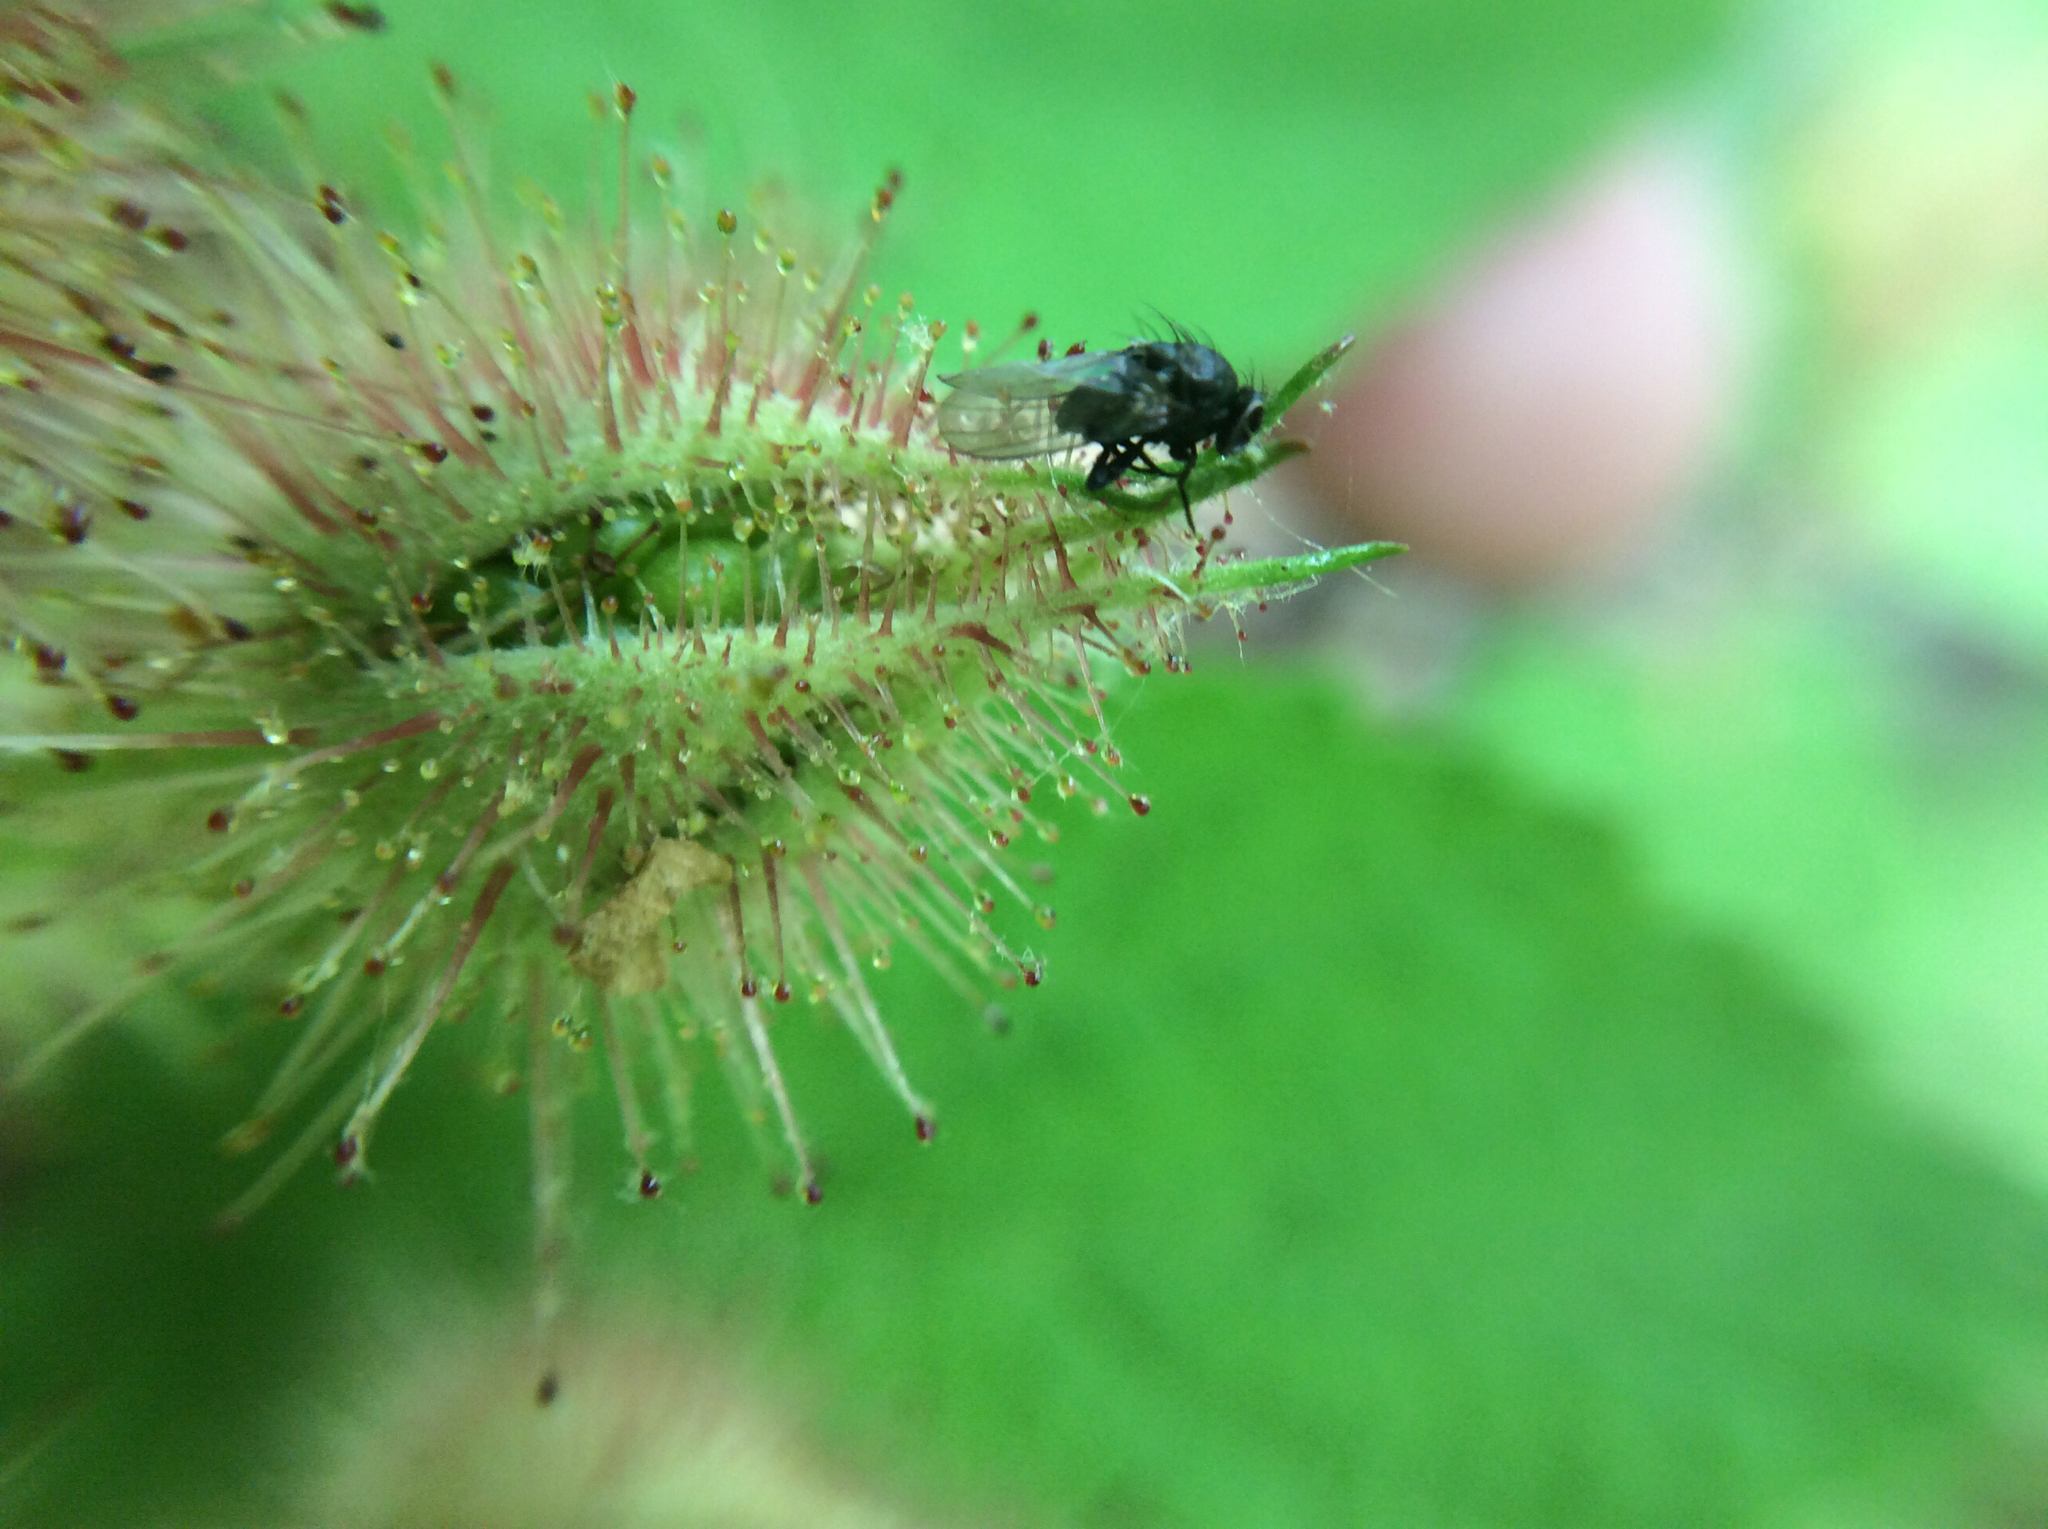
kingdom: Plantae
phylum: Tracheophyta
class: Magnoliopsida
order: Rosales
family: Rosaceae
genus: Rubus
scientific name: Rubus phoenicolasius
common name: Japanese wineberry
